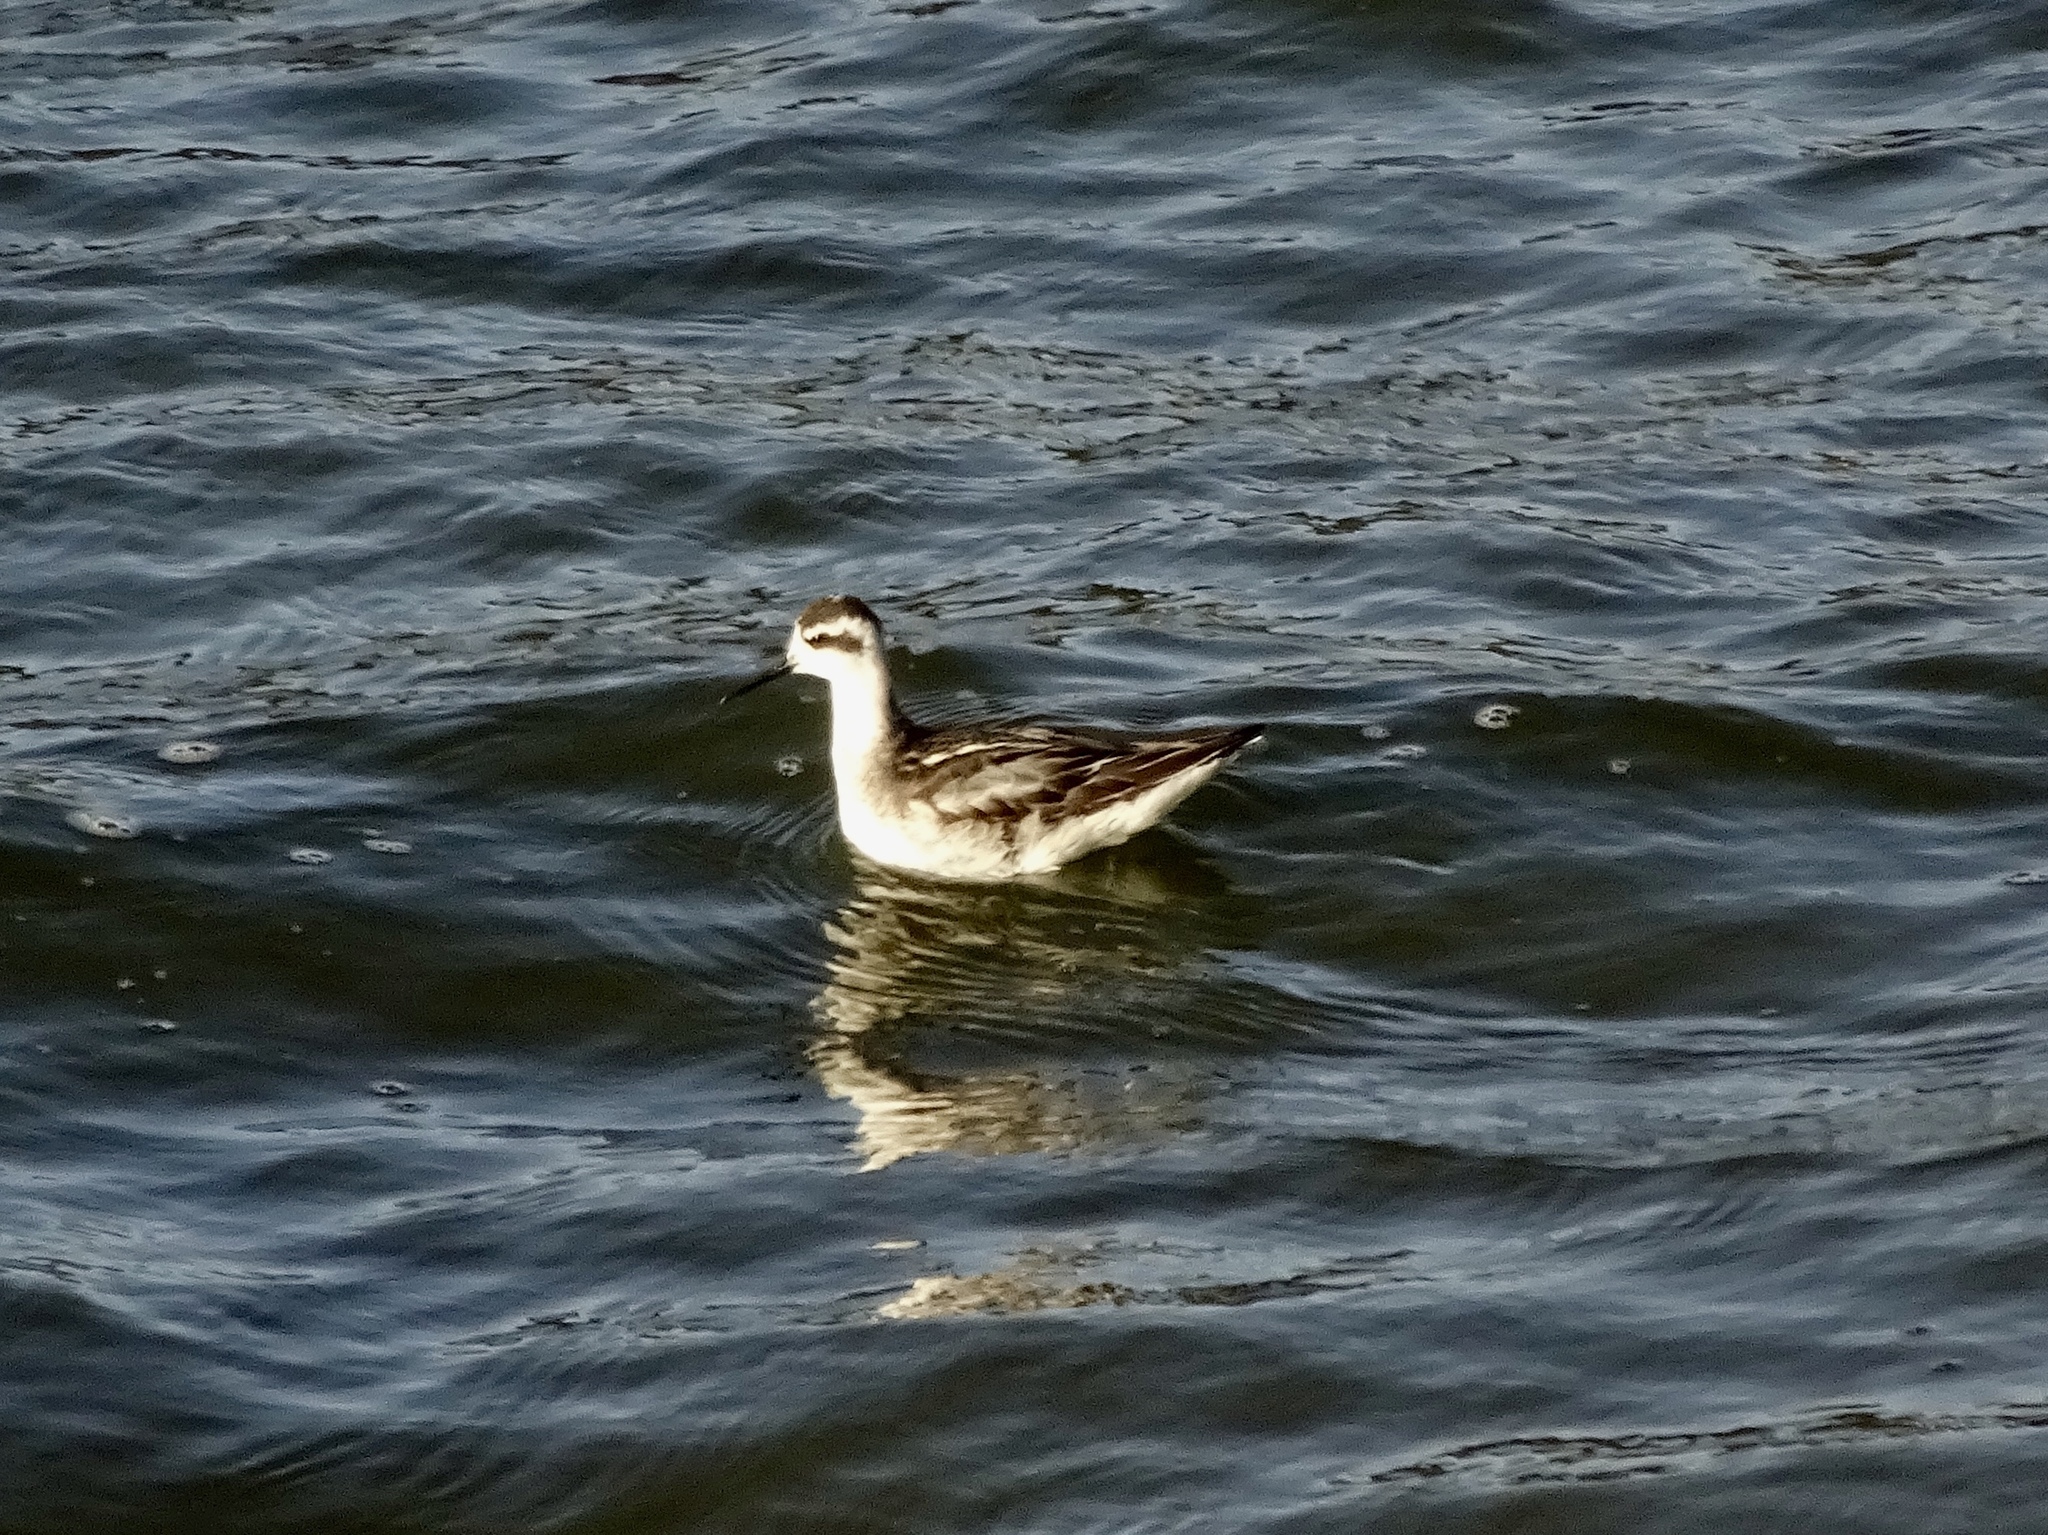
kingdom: Animalia
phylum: Chordata
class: Aves
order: Charadriiformes
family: Scolopacidae
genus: Phalaropus
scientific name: Phalaropus lobatus
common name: Red-necked phalarope
